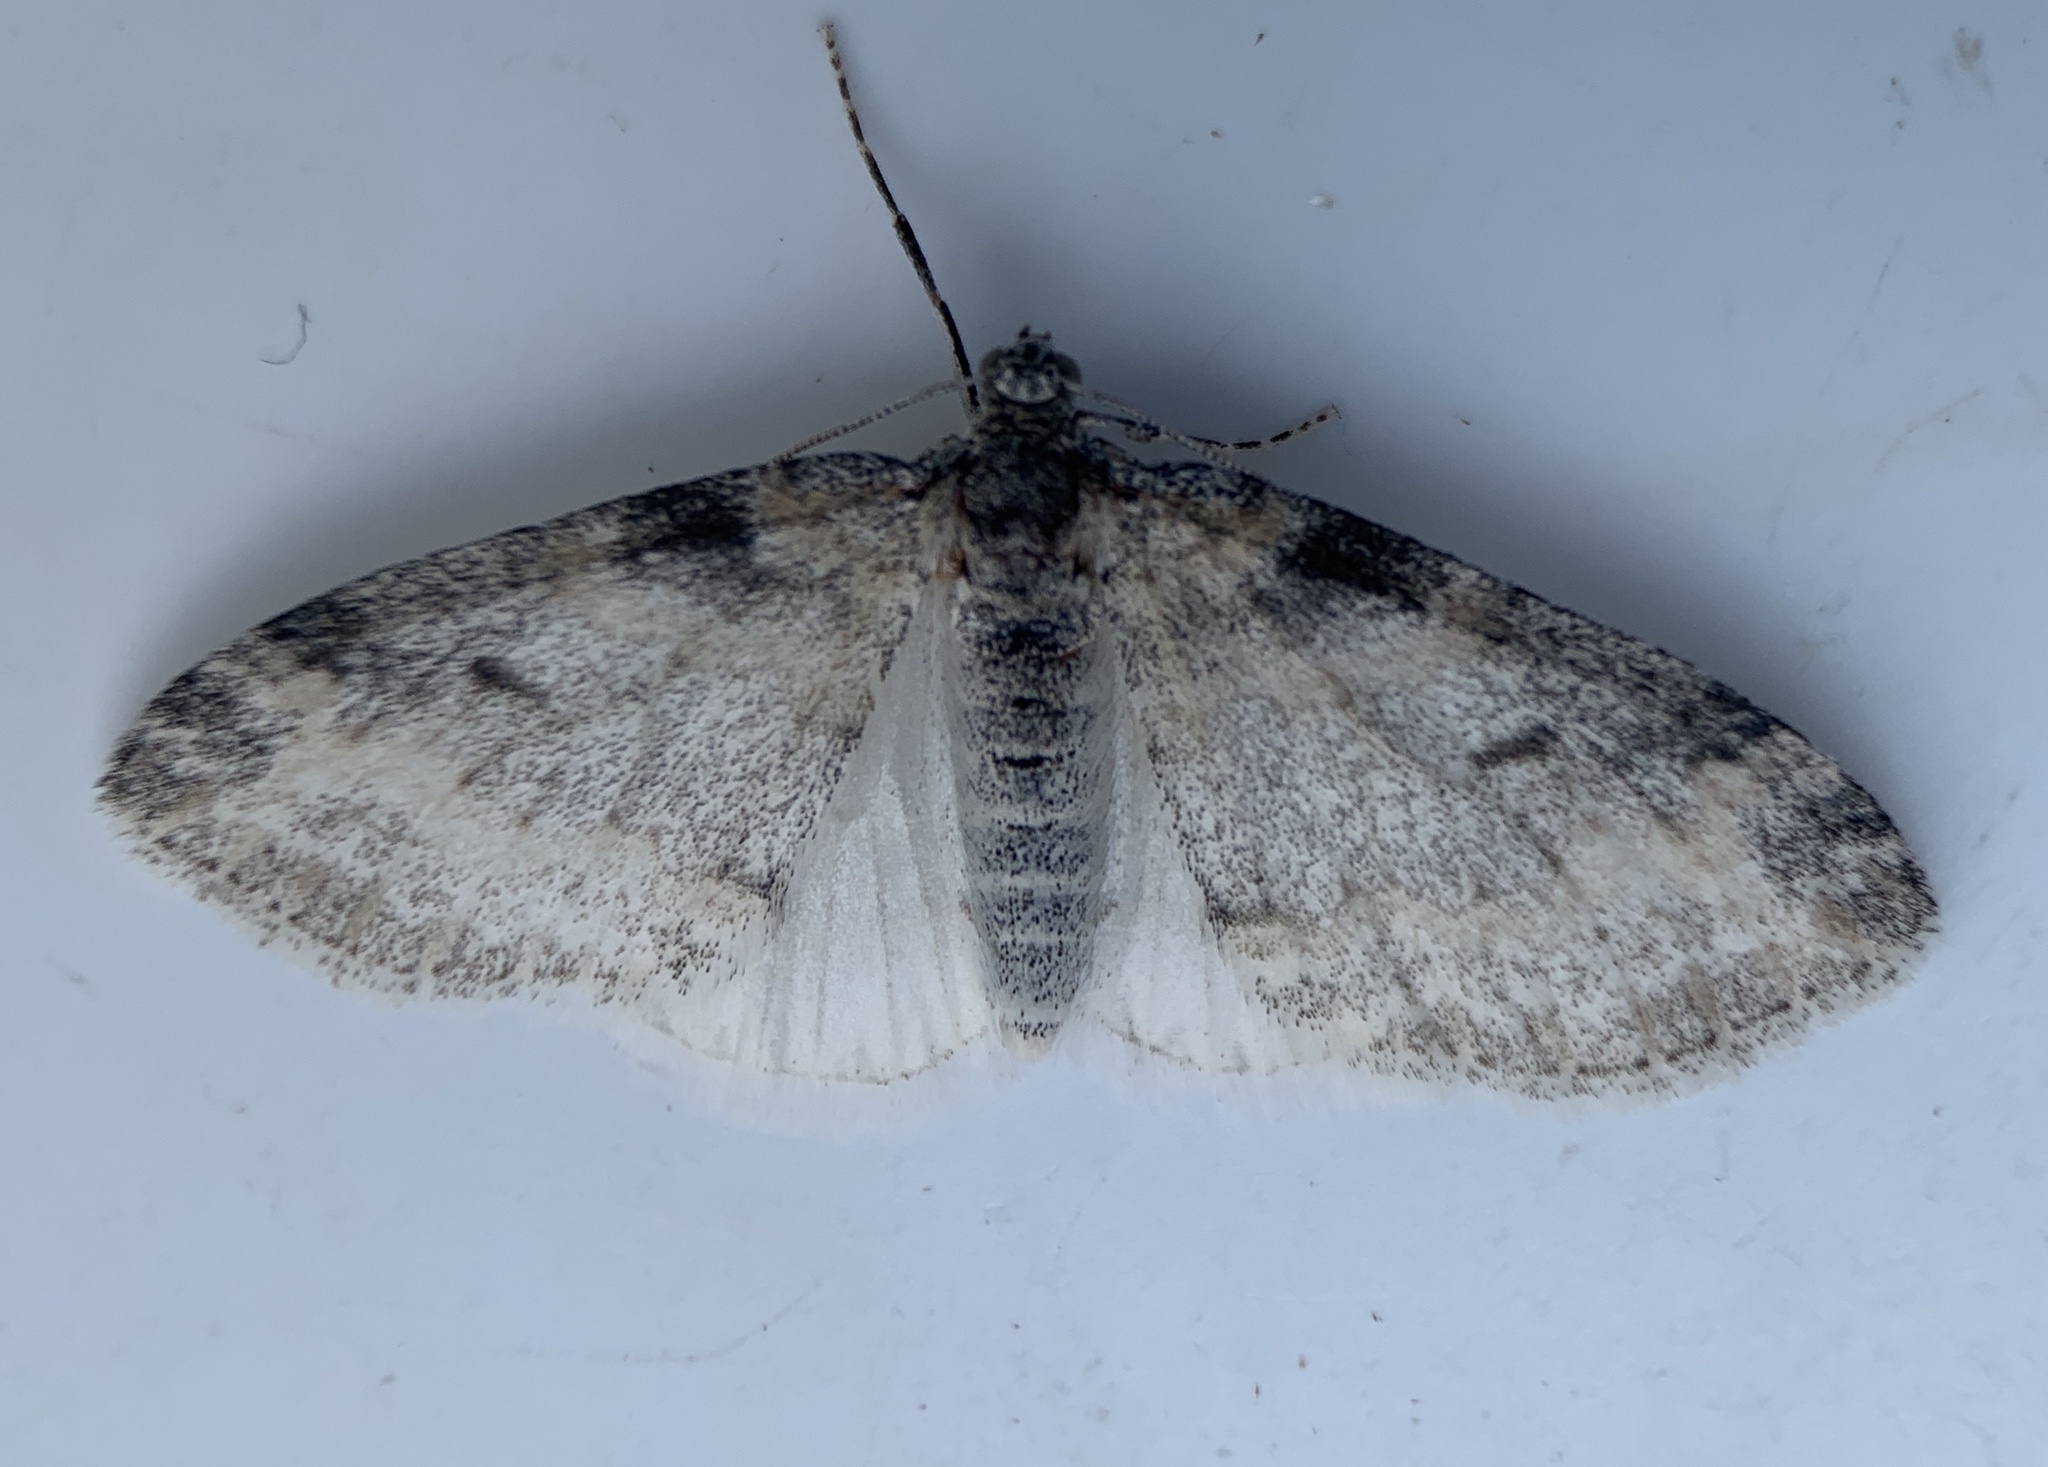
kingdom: Animalia
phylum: Arthropoda
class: Insecta
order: Lepidoptera
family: Geometridae
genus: Lobophora
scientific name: Lobophora nivigerata
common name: Powdered bigwing
